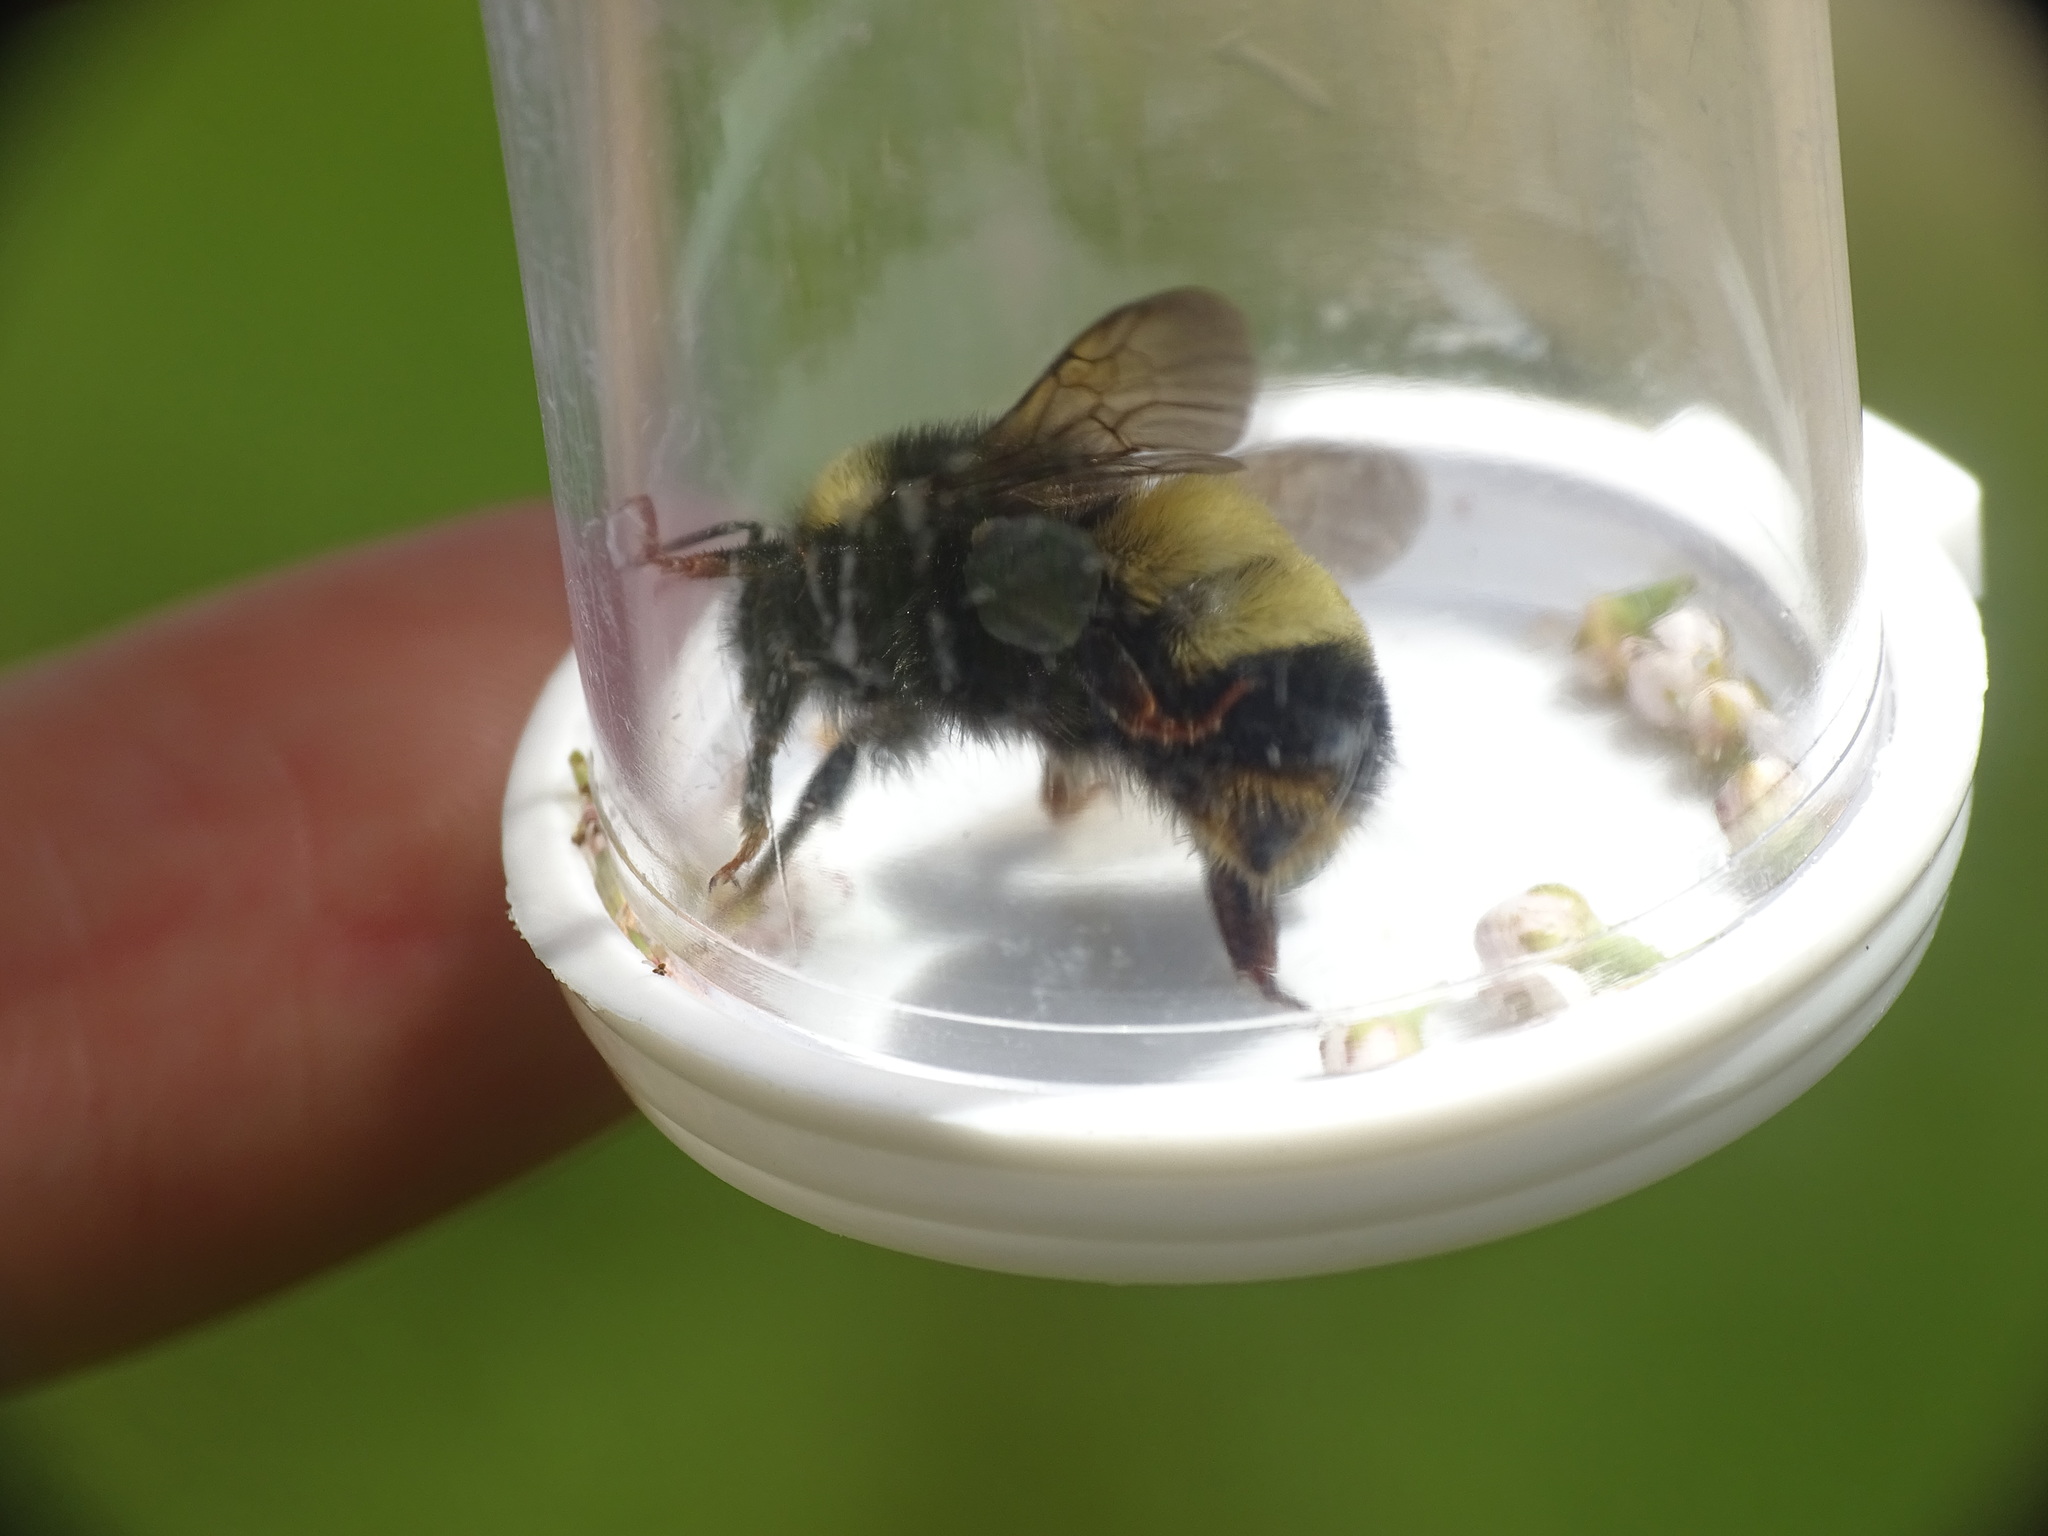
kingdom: Animalia
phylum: Arthropoda
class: Insecta
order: Hymenoptera
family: Apidae
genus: Bombus
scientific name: Bombus terricola
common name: Yellow-banded bumble bee
